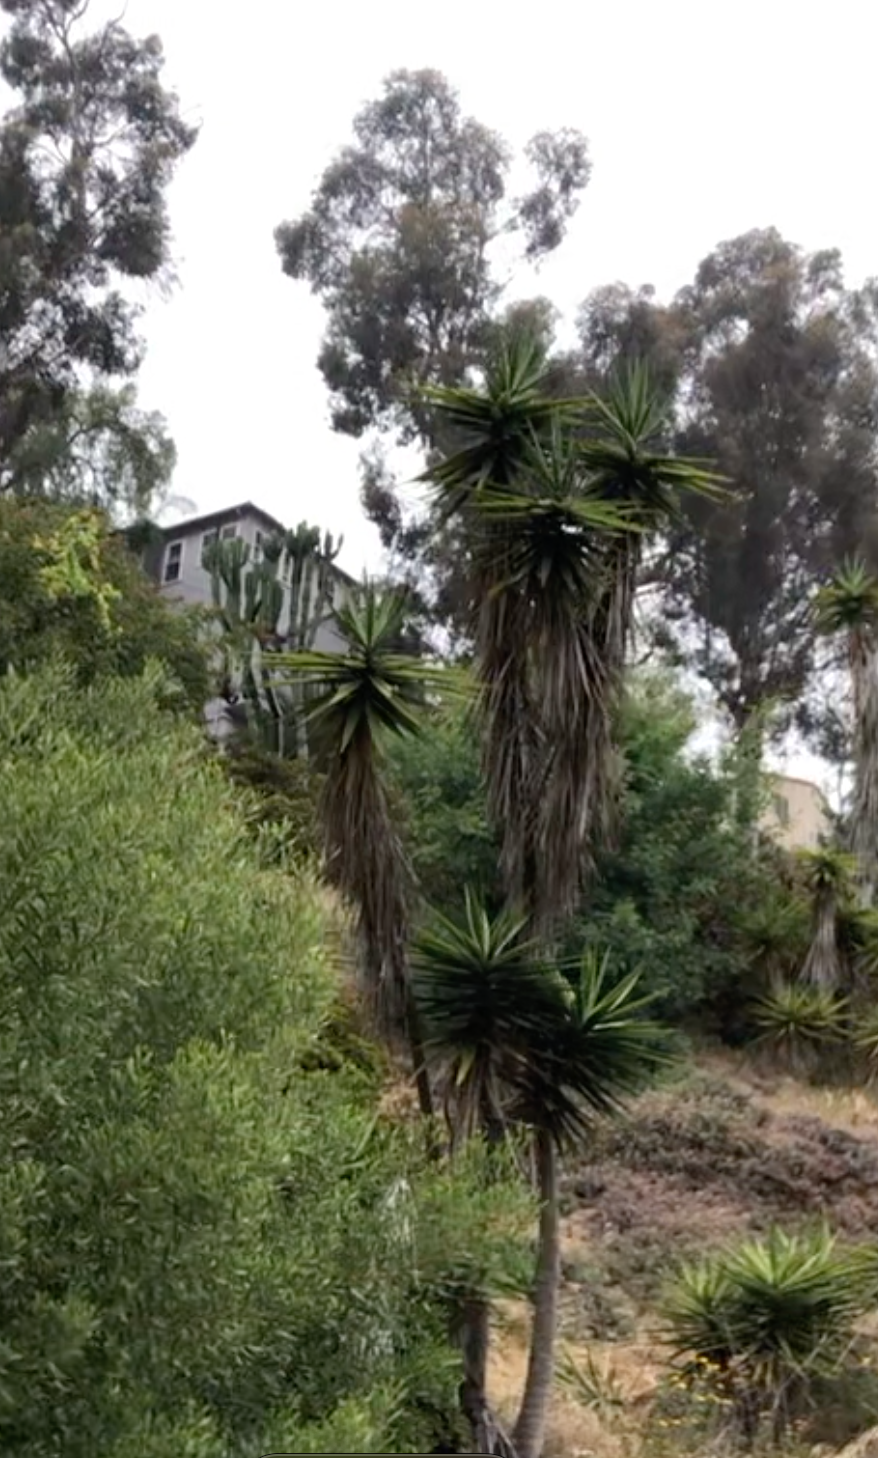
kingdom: Plantae
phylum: Tracheophyta
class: Liliopsida
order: Asparagales
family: Asparagaceae
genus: Yucca
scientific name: Yucca gigantea
